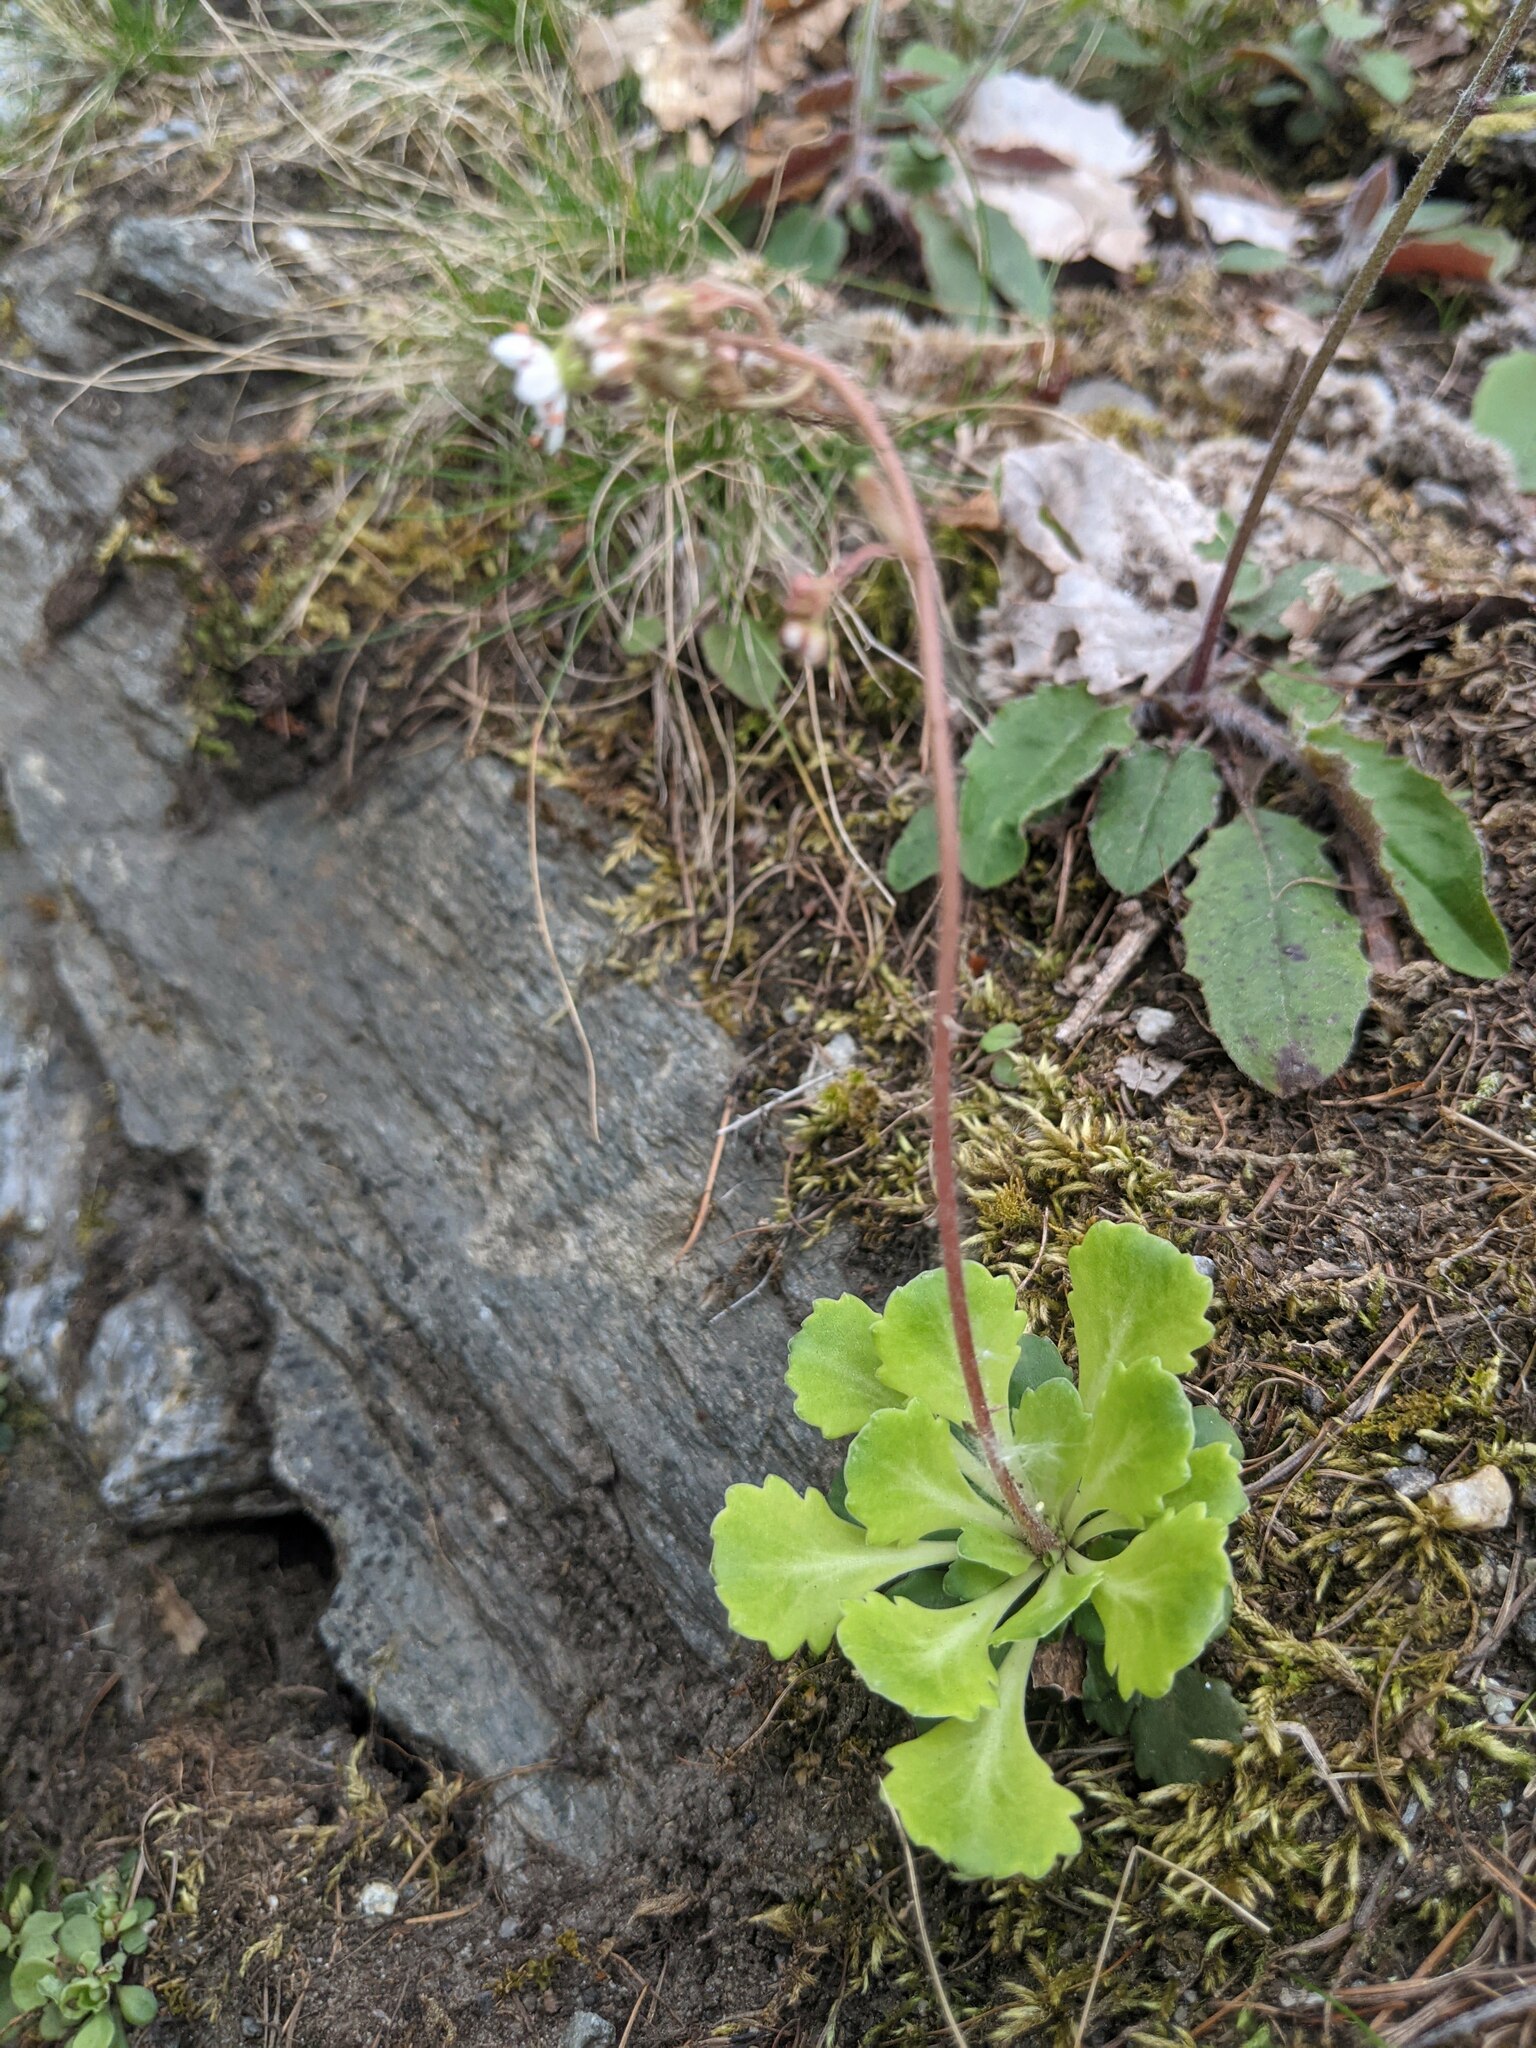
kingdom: Plantae
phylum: Tracheophyta
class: Magnoliopsida
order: Saxifragales
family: Saxifragaceae
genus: Saxifraga
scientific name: Saxifraga cuneifolia
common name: Lesser londonpride
